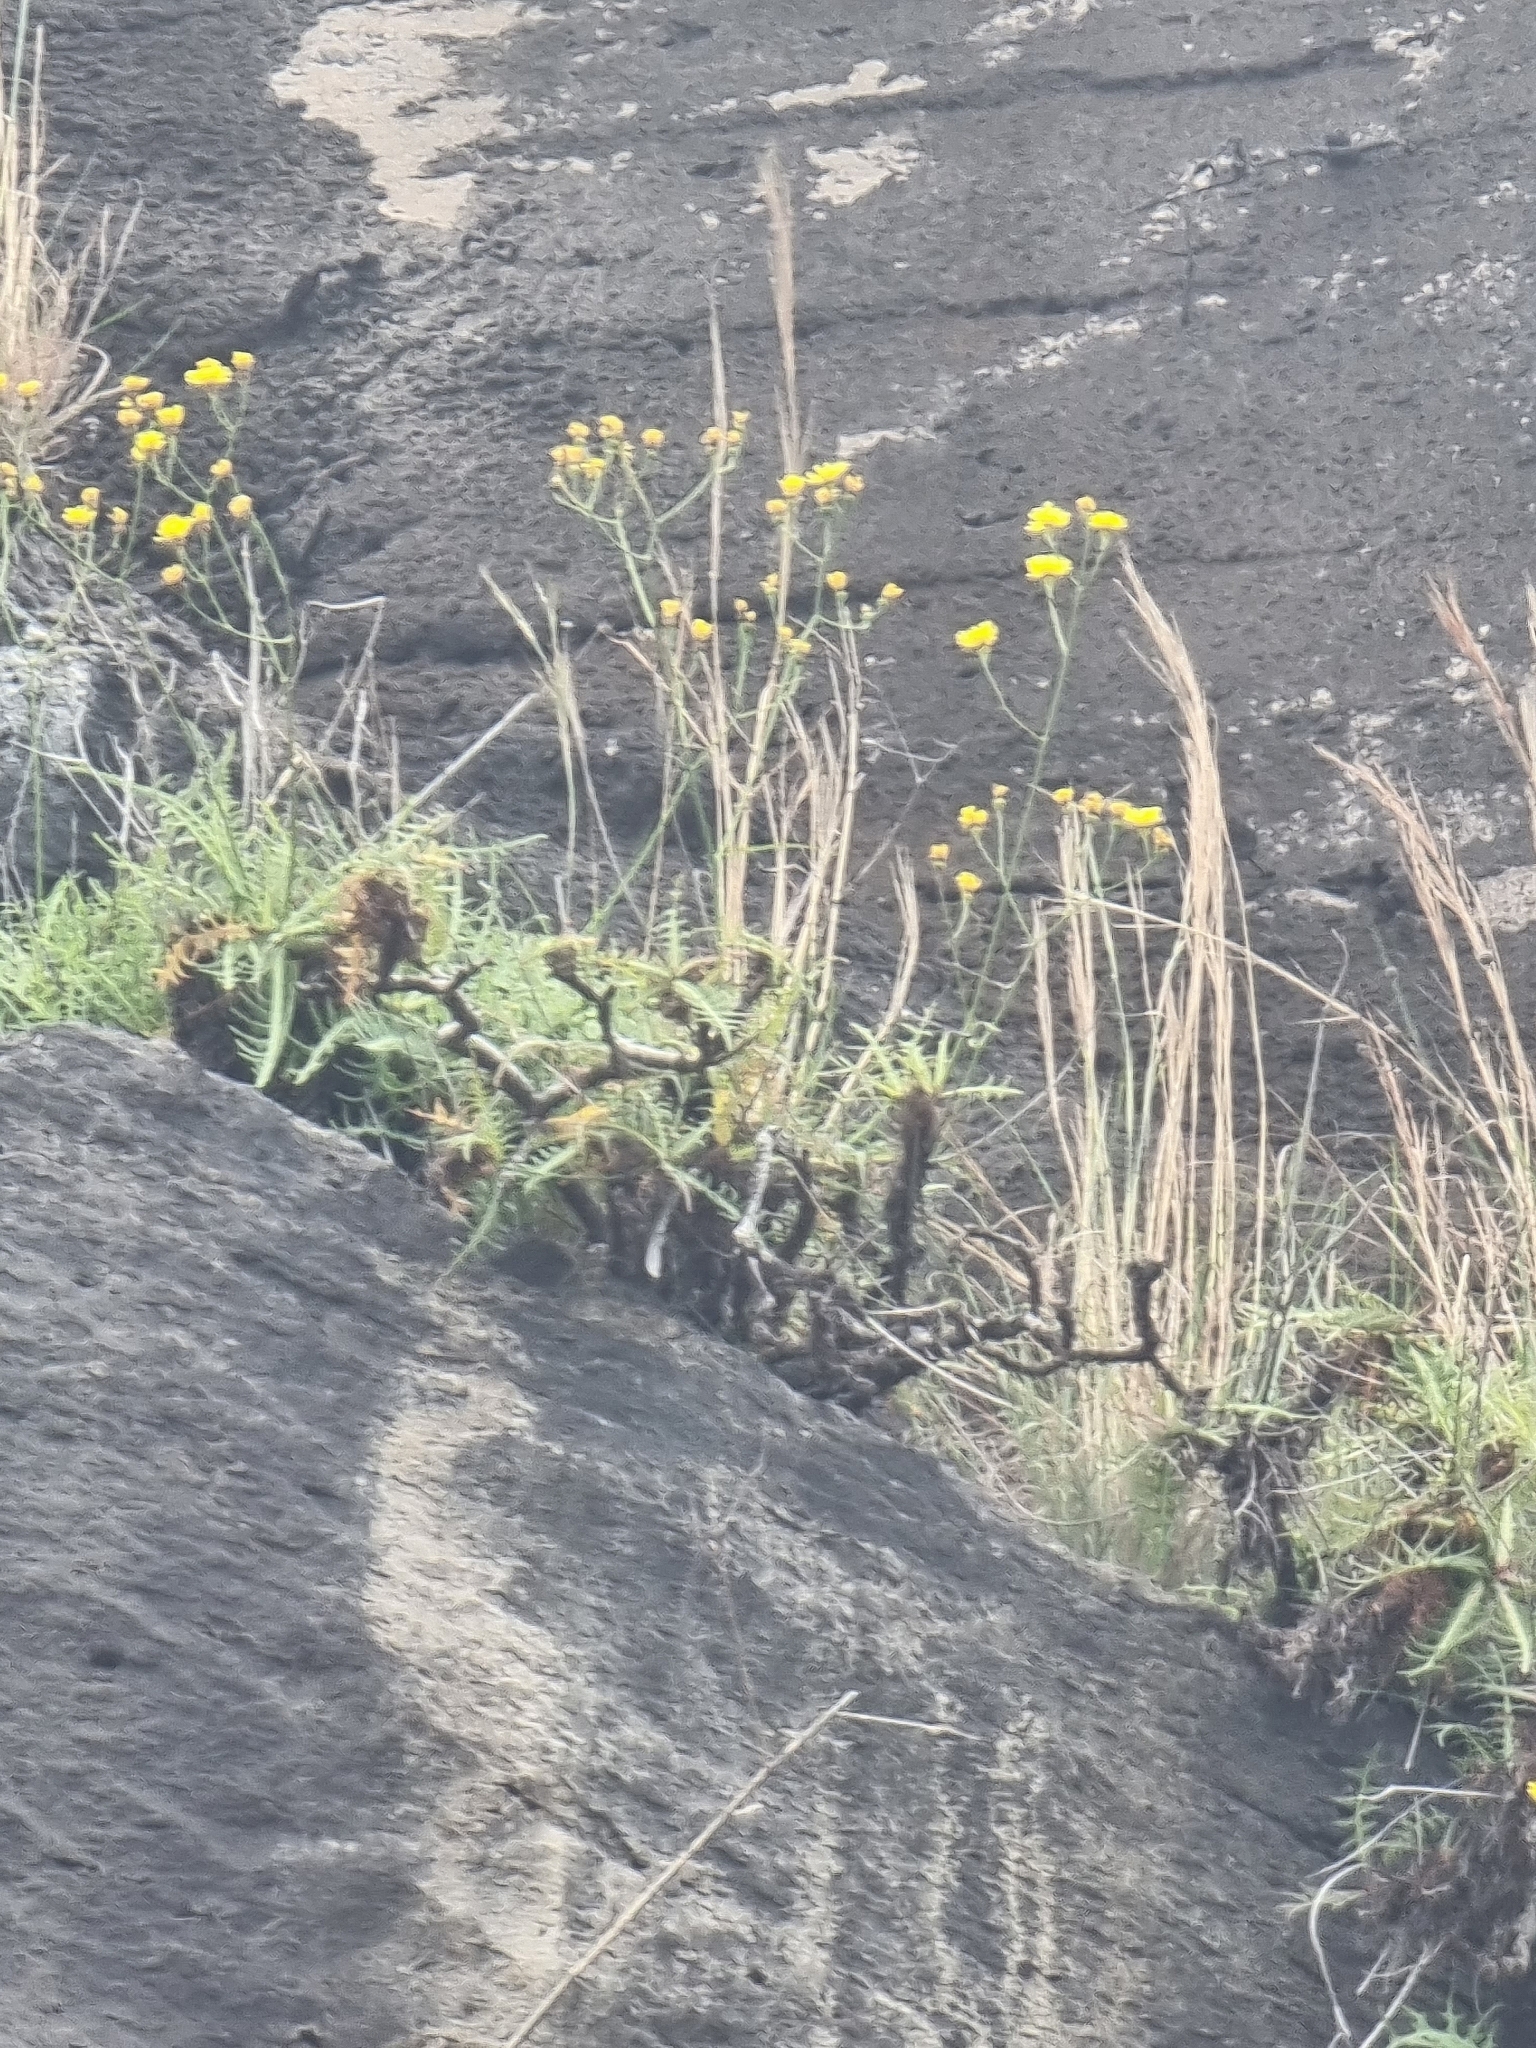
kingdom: Plantae
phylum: Tracheophyta
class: Magnoliopsida
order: Asterales
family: Asteraceae
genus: Sonchus
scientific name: Sonchus ustulatus
